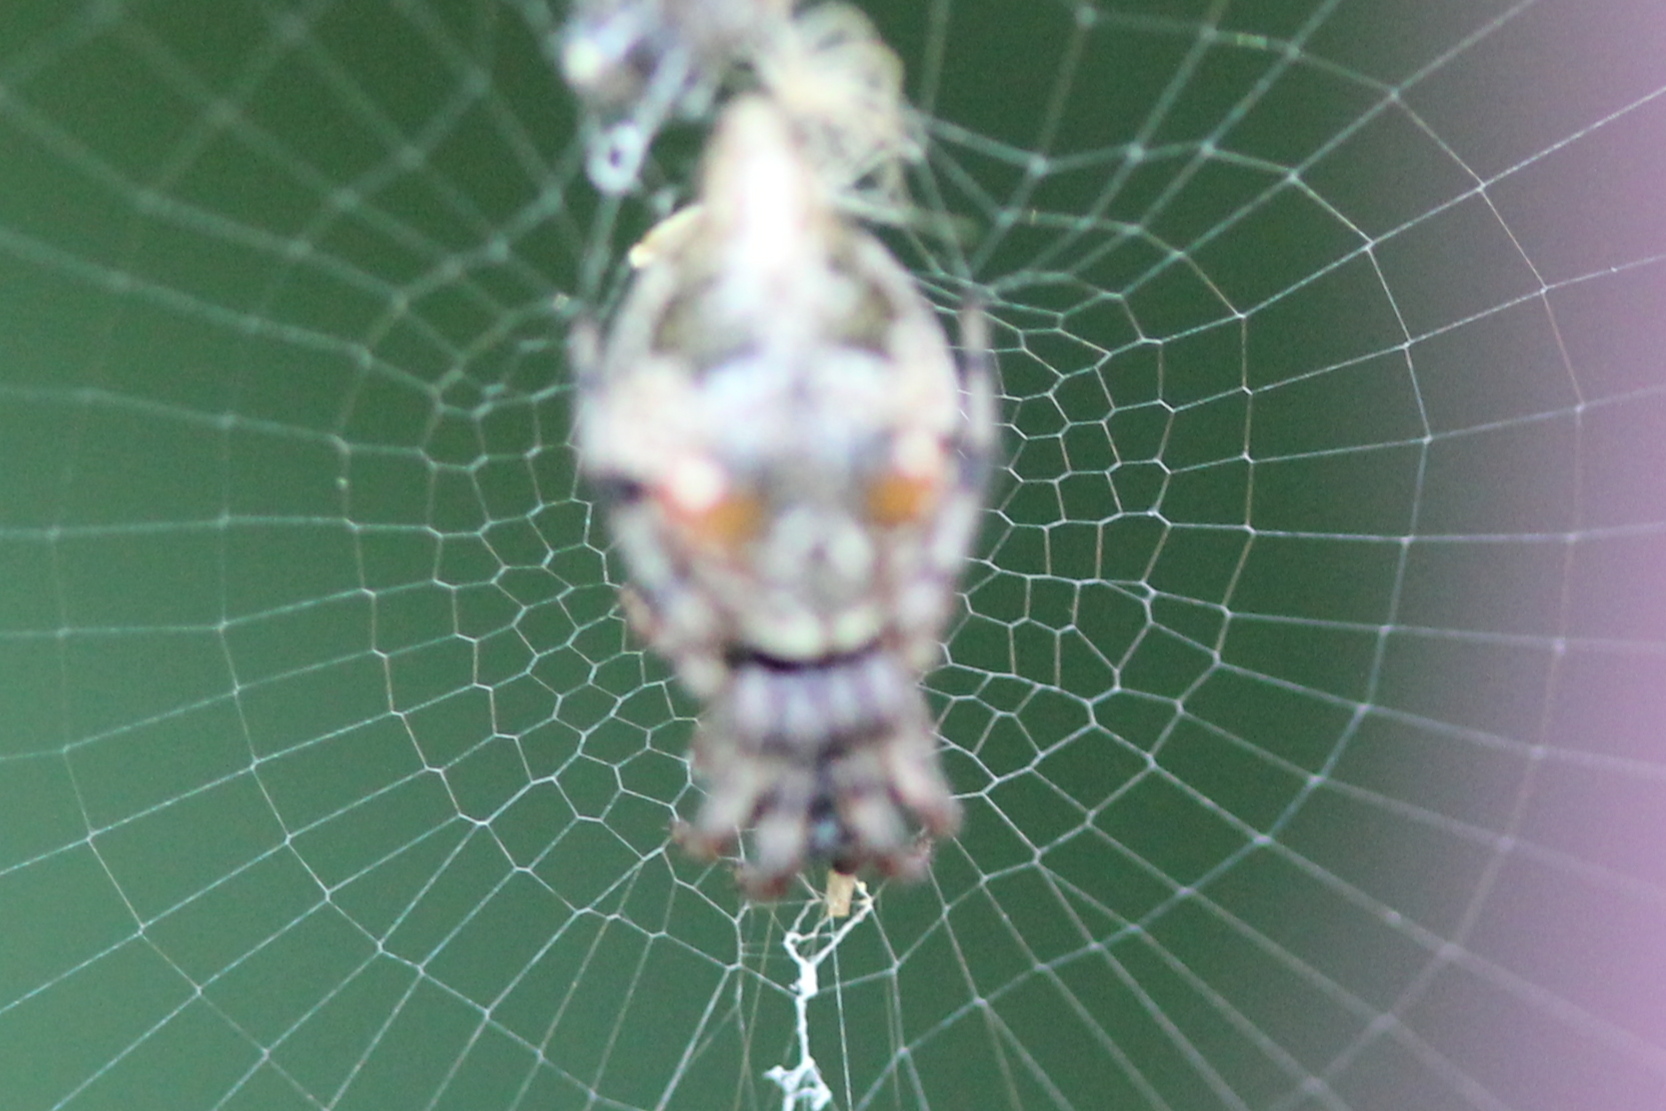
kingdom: Animalia
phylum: Arthropoda
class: Arachnida
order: Araneae
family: Araneidae
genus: Cyclosa
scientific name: Cyclosa turbinata
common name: Orb weavers
